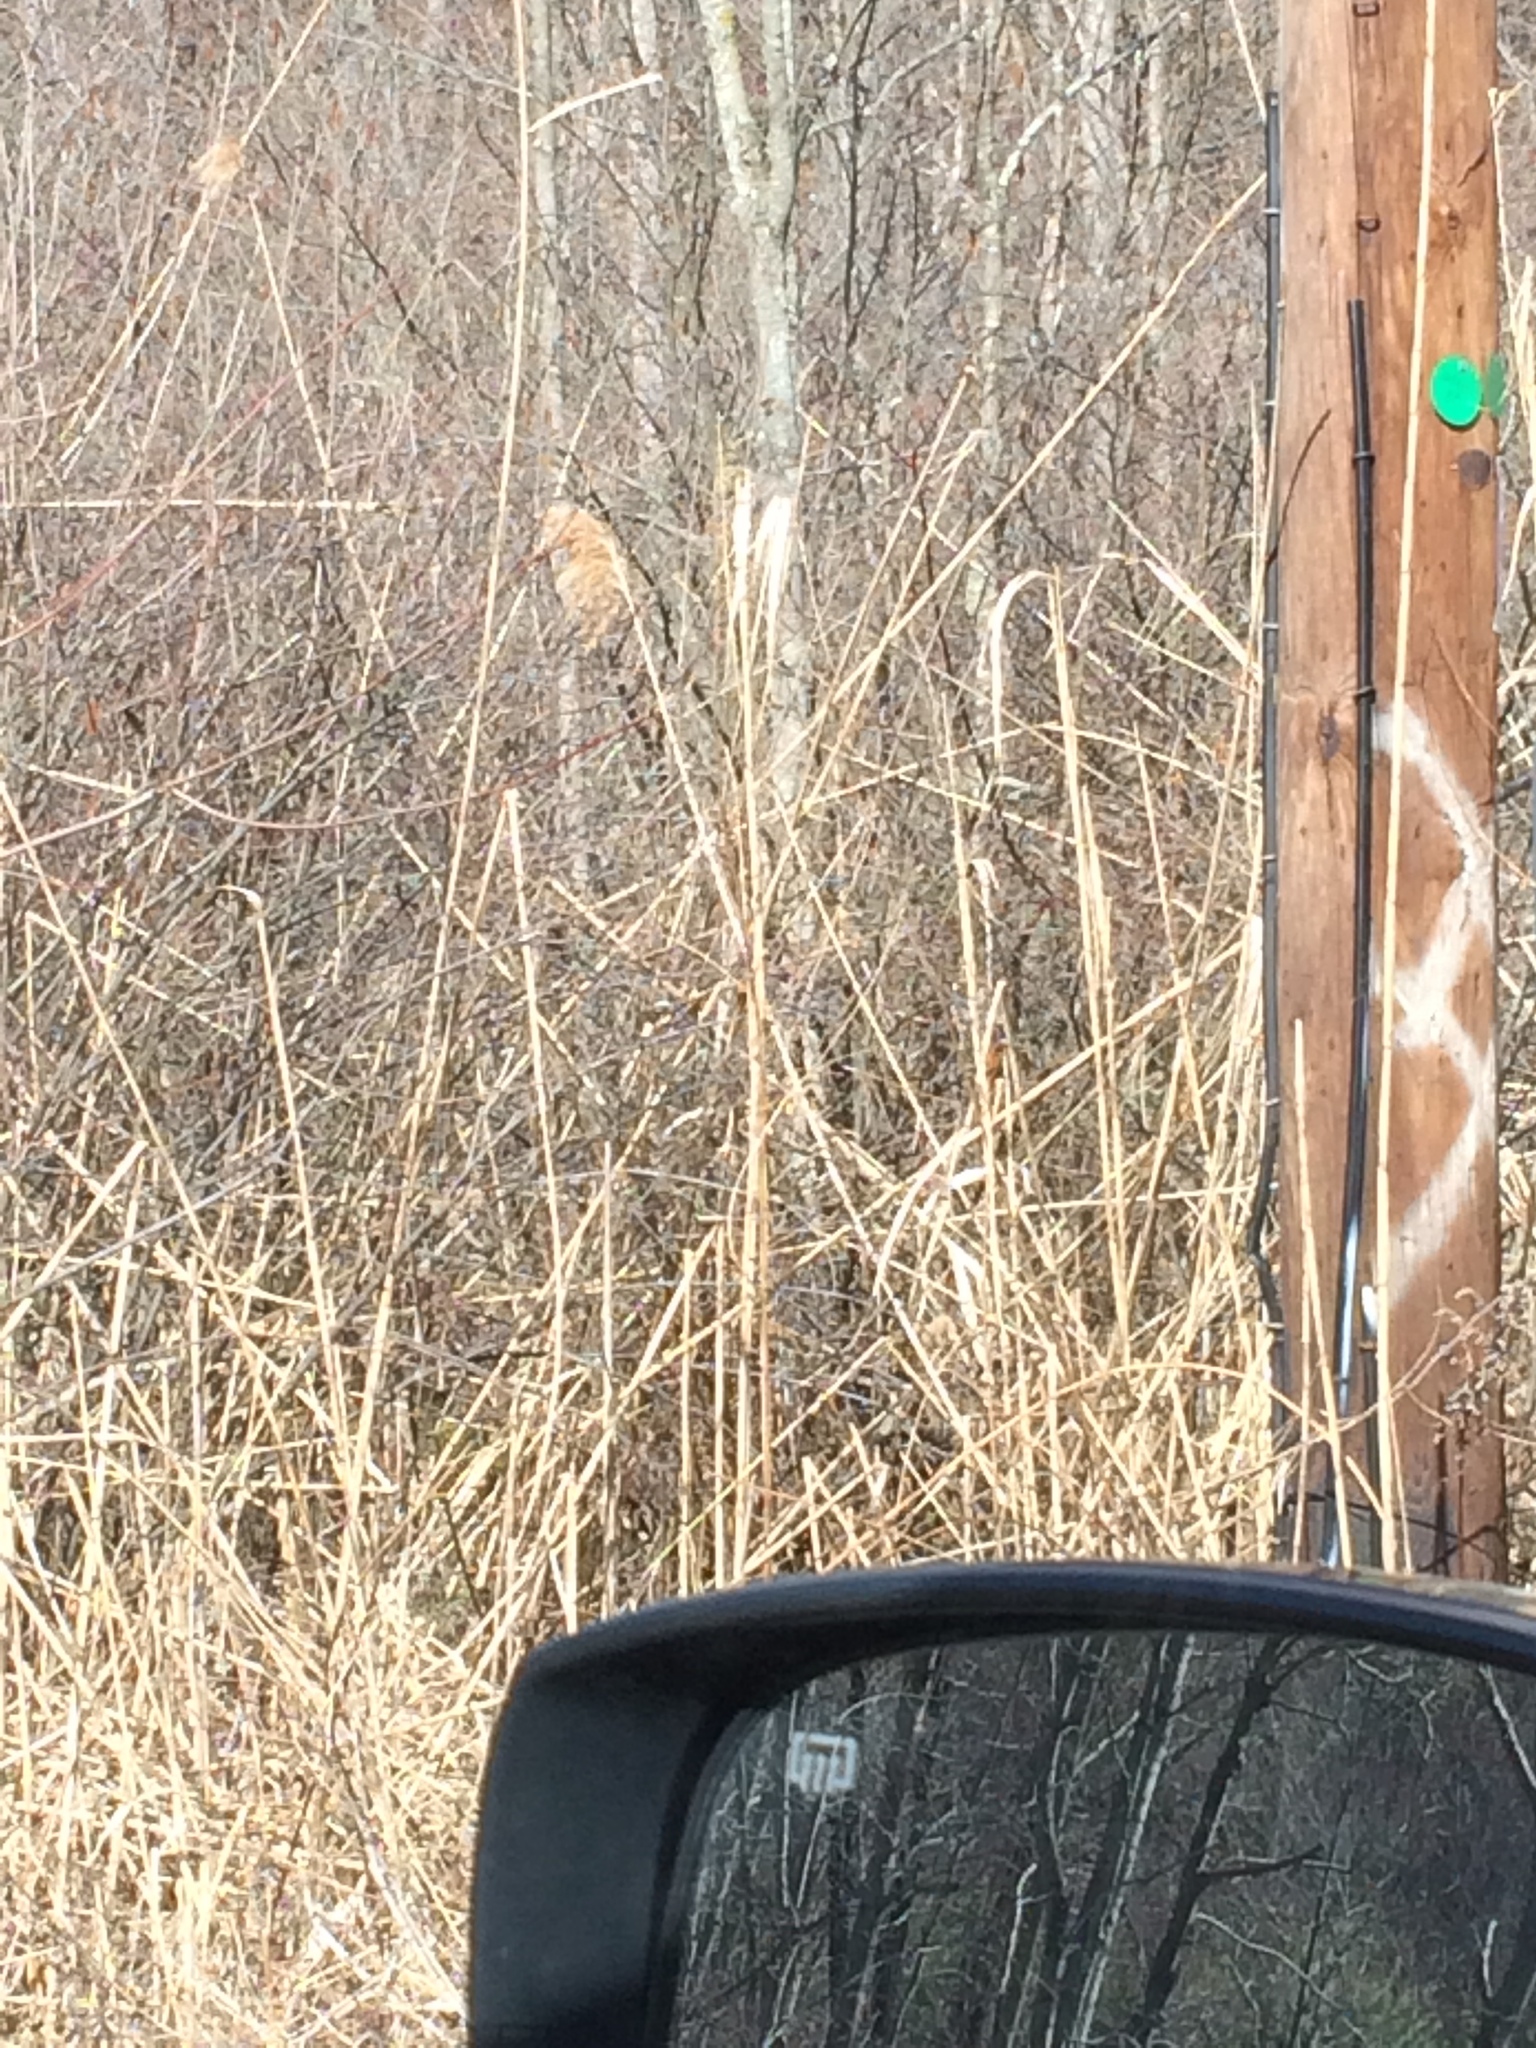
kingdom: Plantae
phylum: Tracheophyta
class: Liliopsida
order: Poales
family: Poaceae
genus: Phragmites
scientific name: Phragmites australis
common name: Common reed
